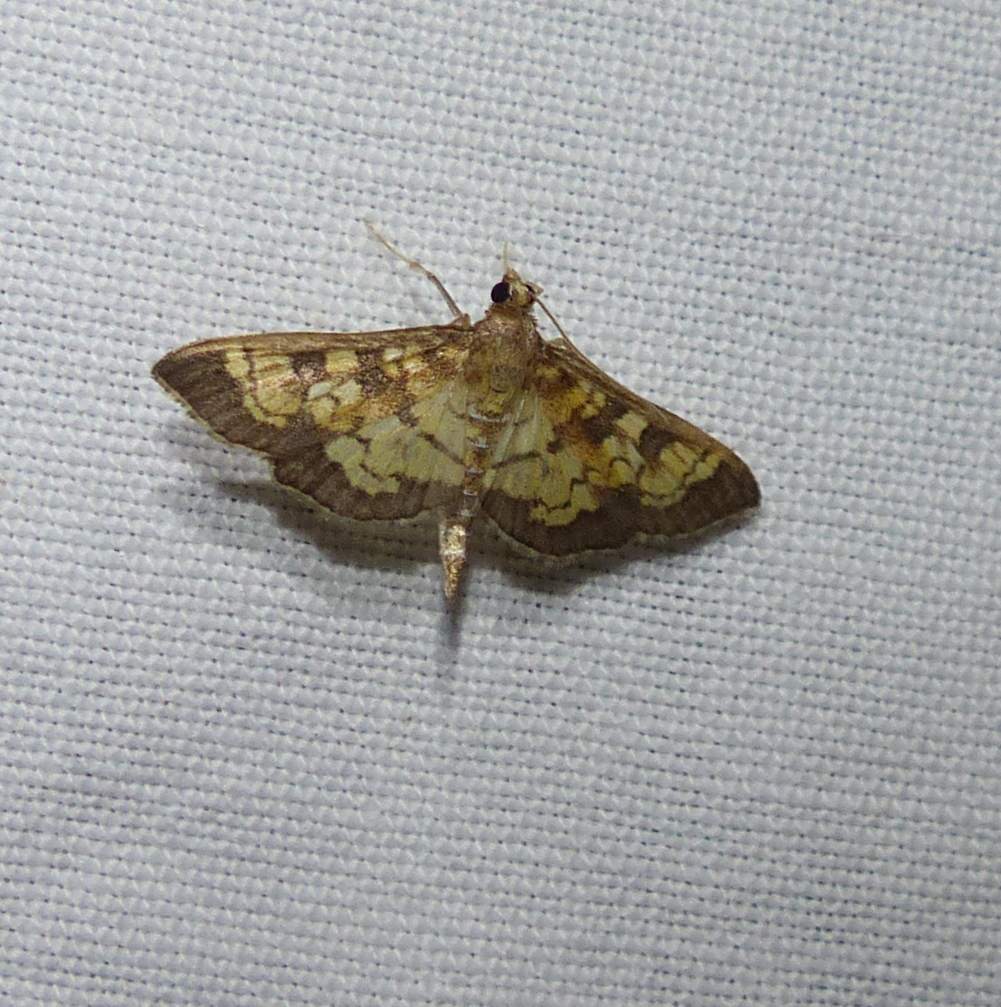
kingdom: Animalia
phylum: Arthropoda
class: Insecta
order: Lepidoptera
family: Crambidae
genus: Epipagis
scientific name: Epipagis adipaloides
